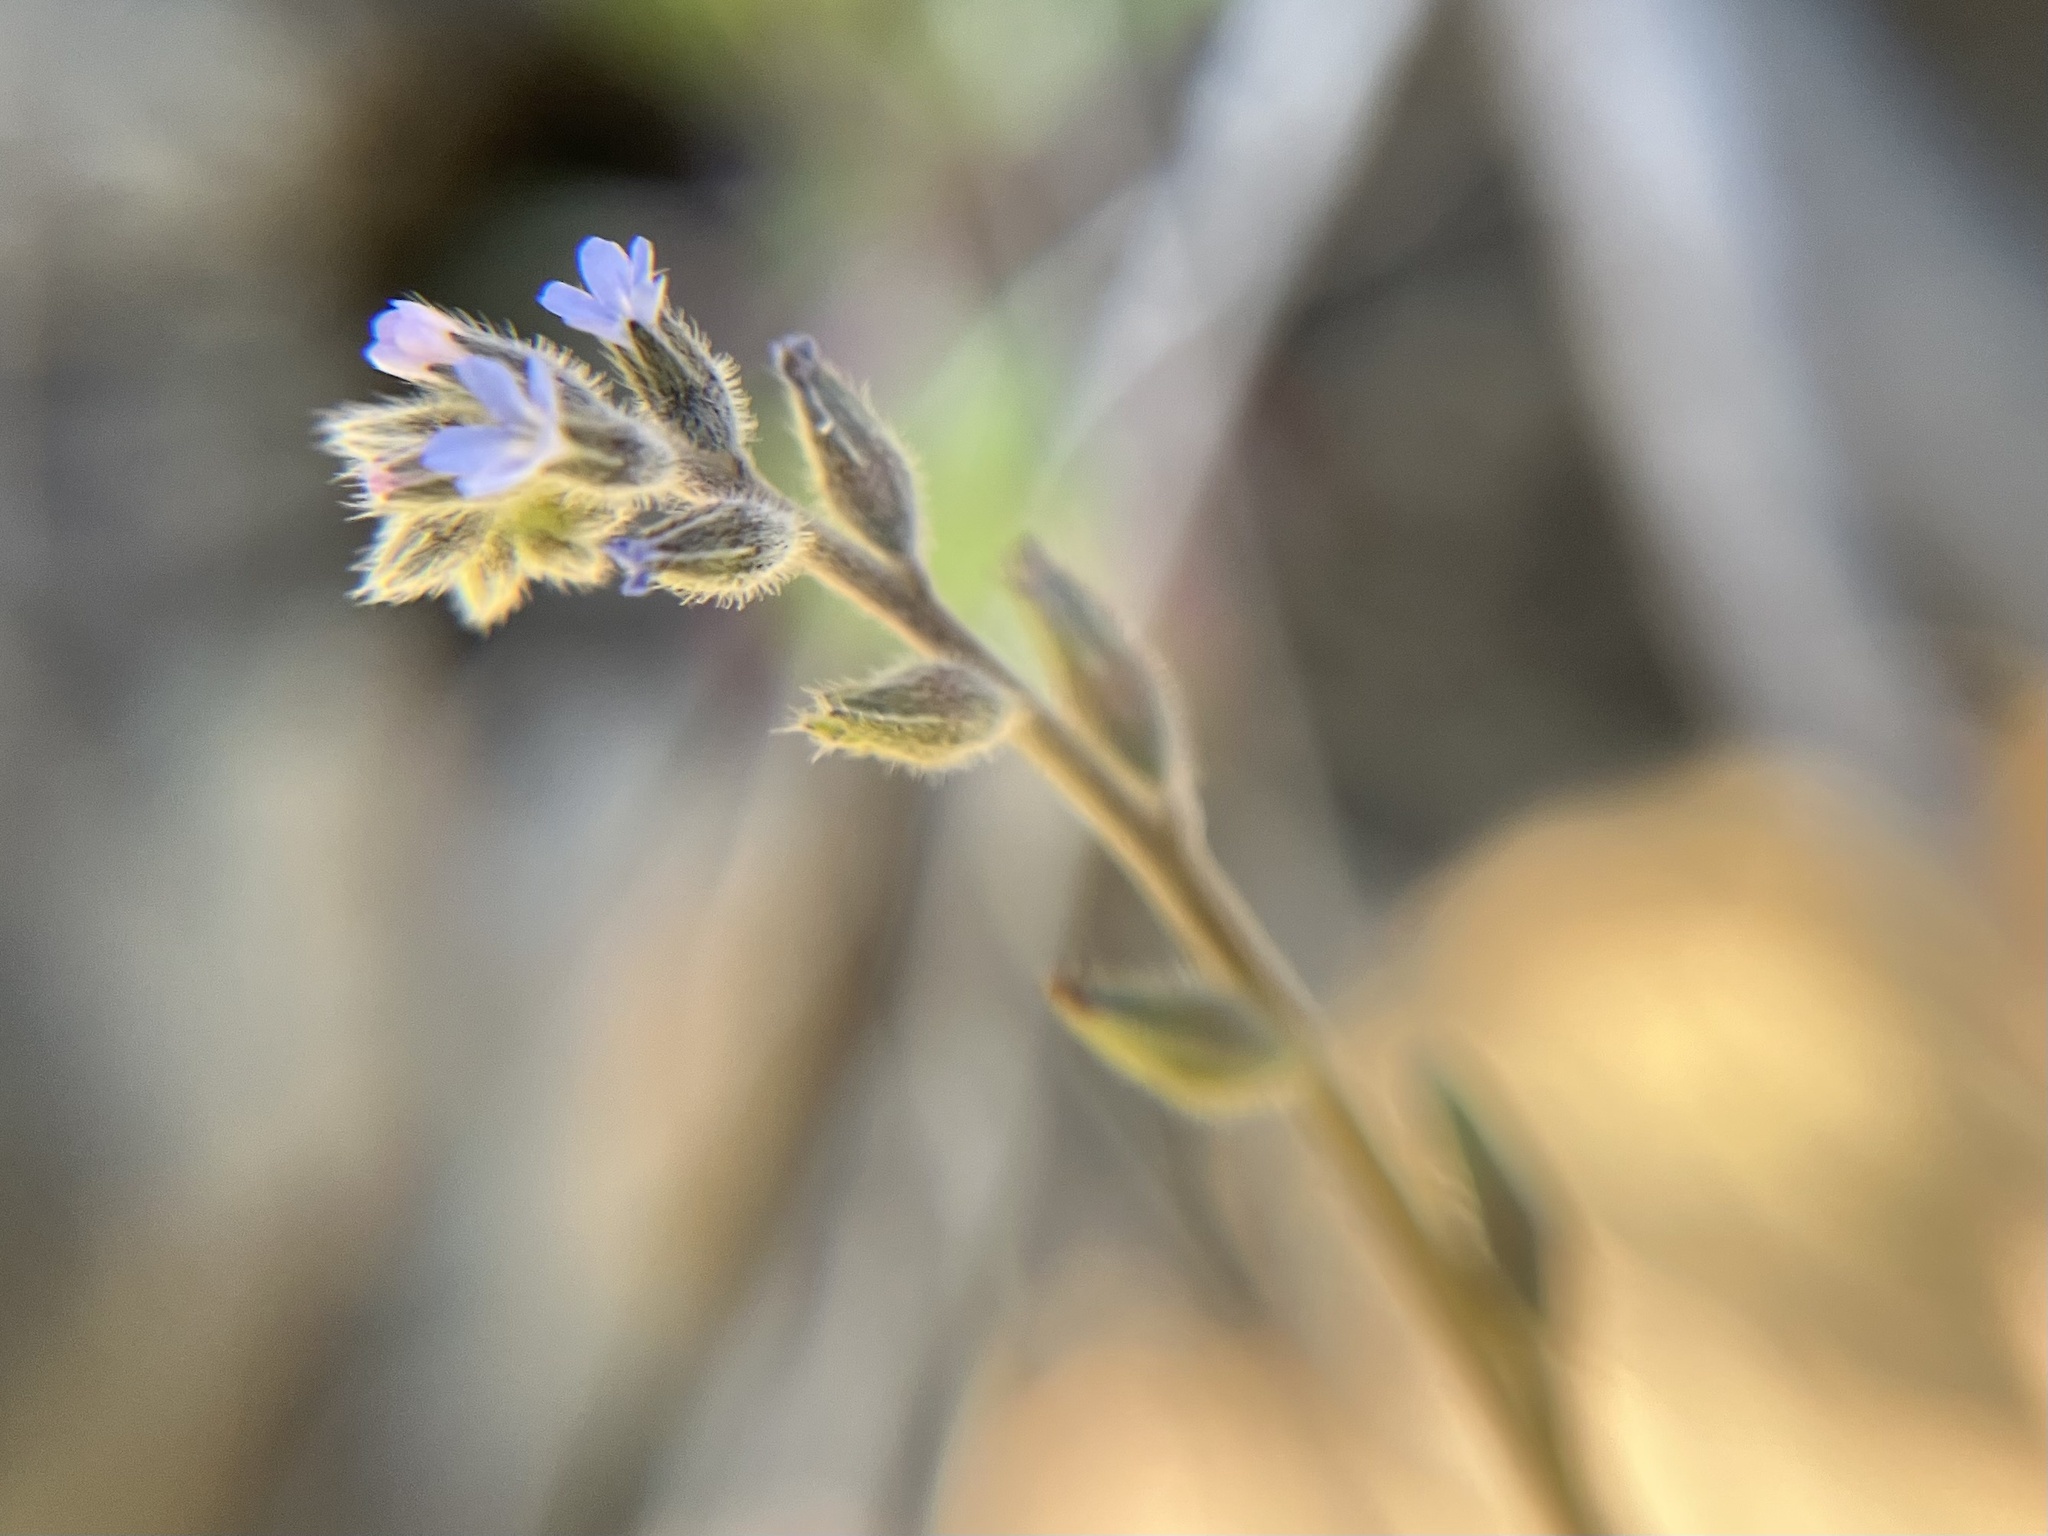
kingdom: Plantae
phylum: Tracheophyta
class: Magnoliopsida
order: Boraginales
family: Boraginaceae
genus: Myosotis
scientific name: Myosotis stricta
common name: Strict forget-me-not
